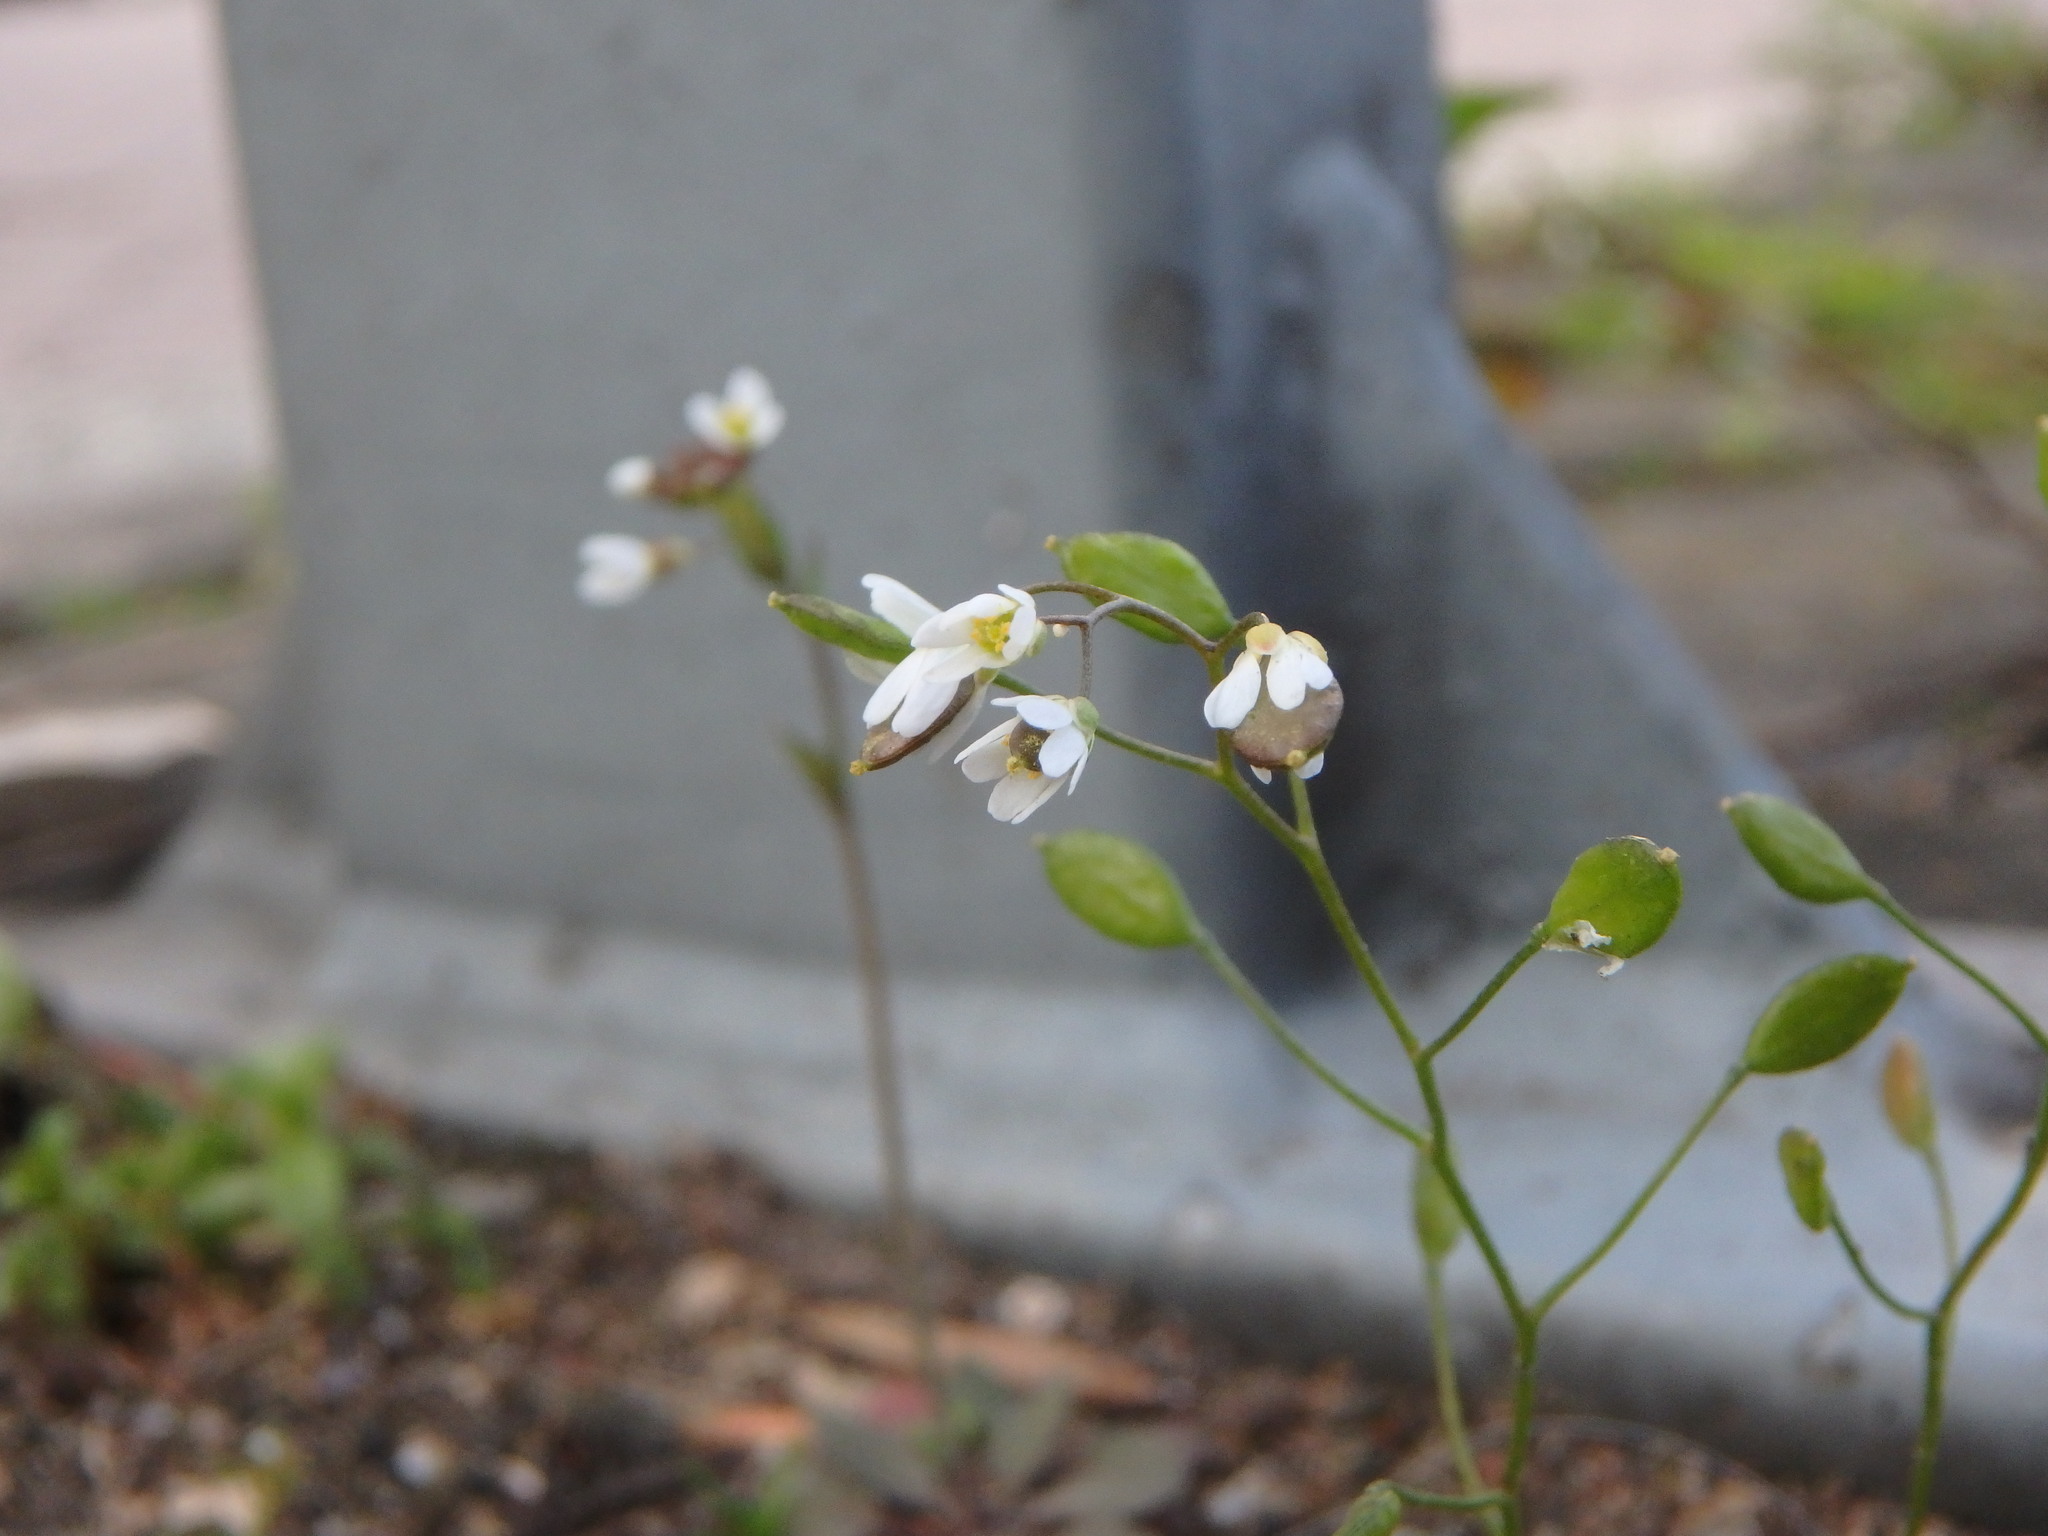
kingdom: Plantae
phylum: Tracheophyta
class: Magnoliopsida
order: Brassicales
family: Brassicaceae
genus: Draba
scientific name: Draba verna
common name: Spring draba
